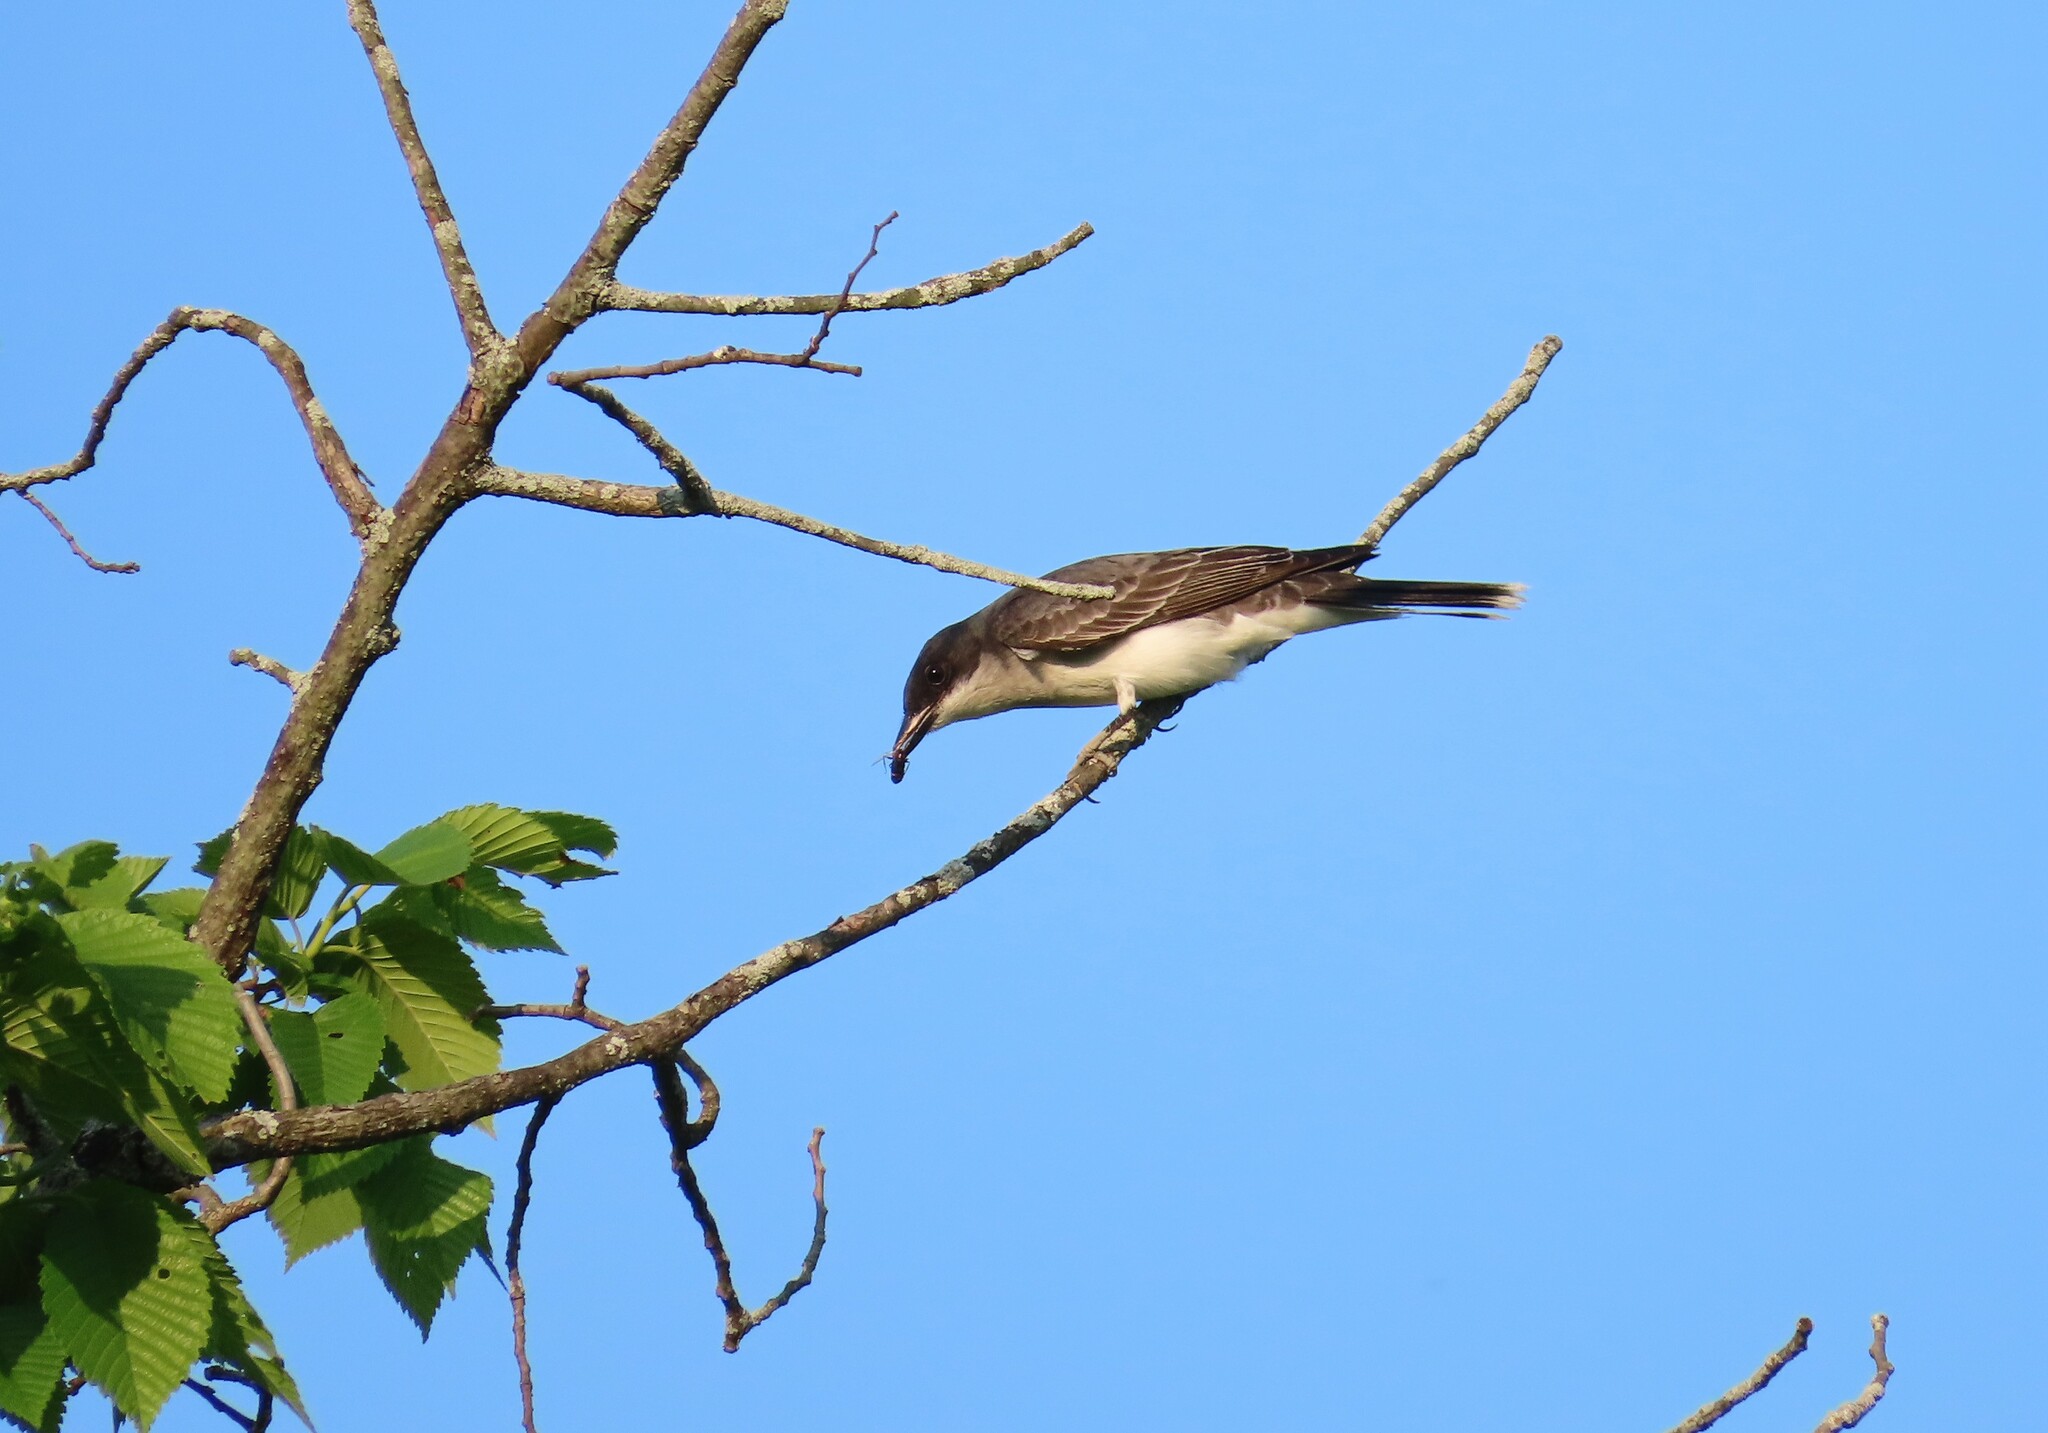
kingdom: Animalia
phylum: Chordata
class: Aves
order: Passeriformes
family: Tyrannidae
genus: Tyrannus
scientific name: Tyrannus tyrannus
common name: Eastern kingbird
